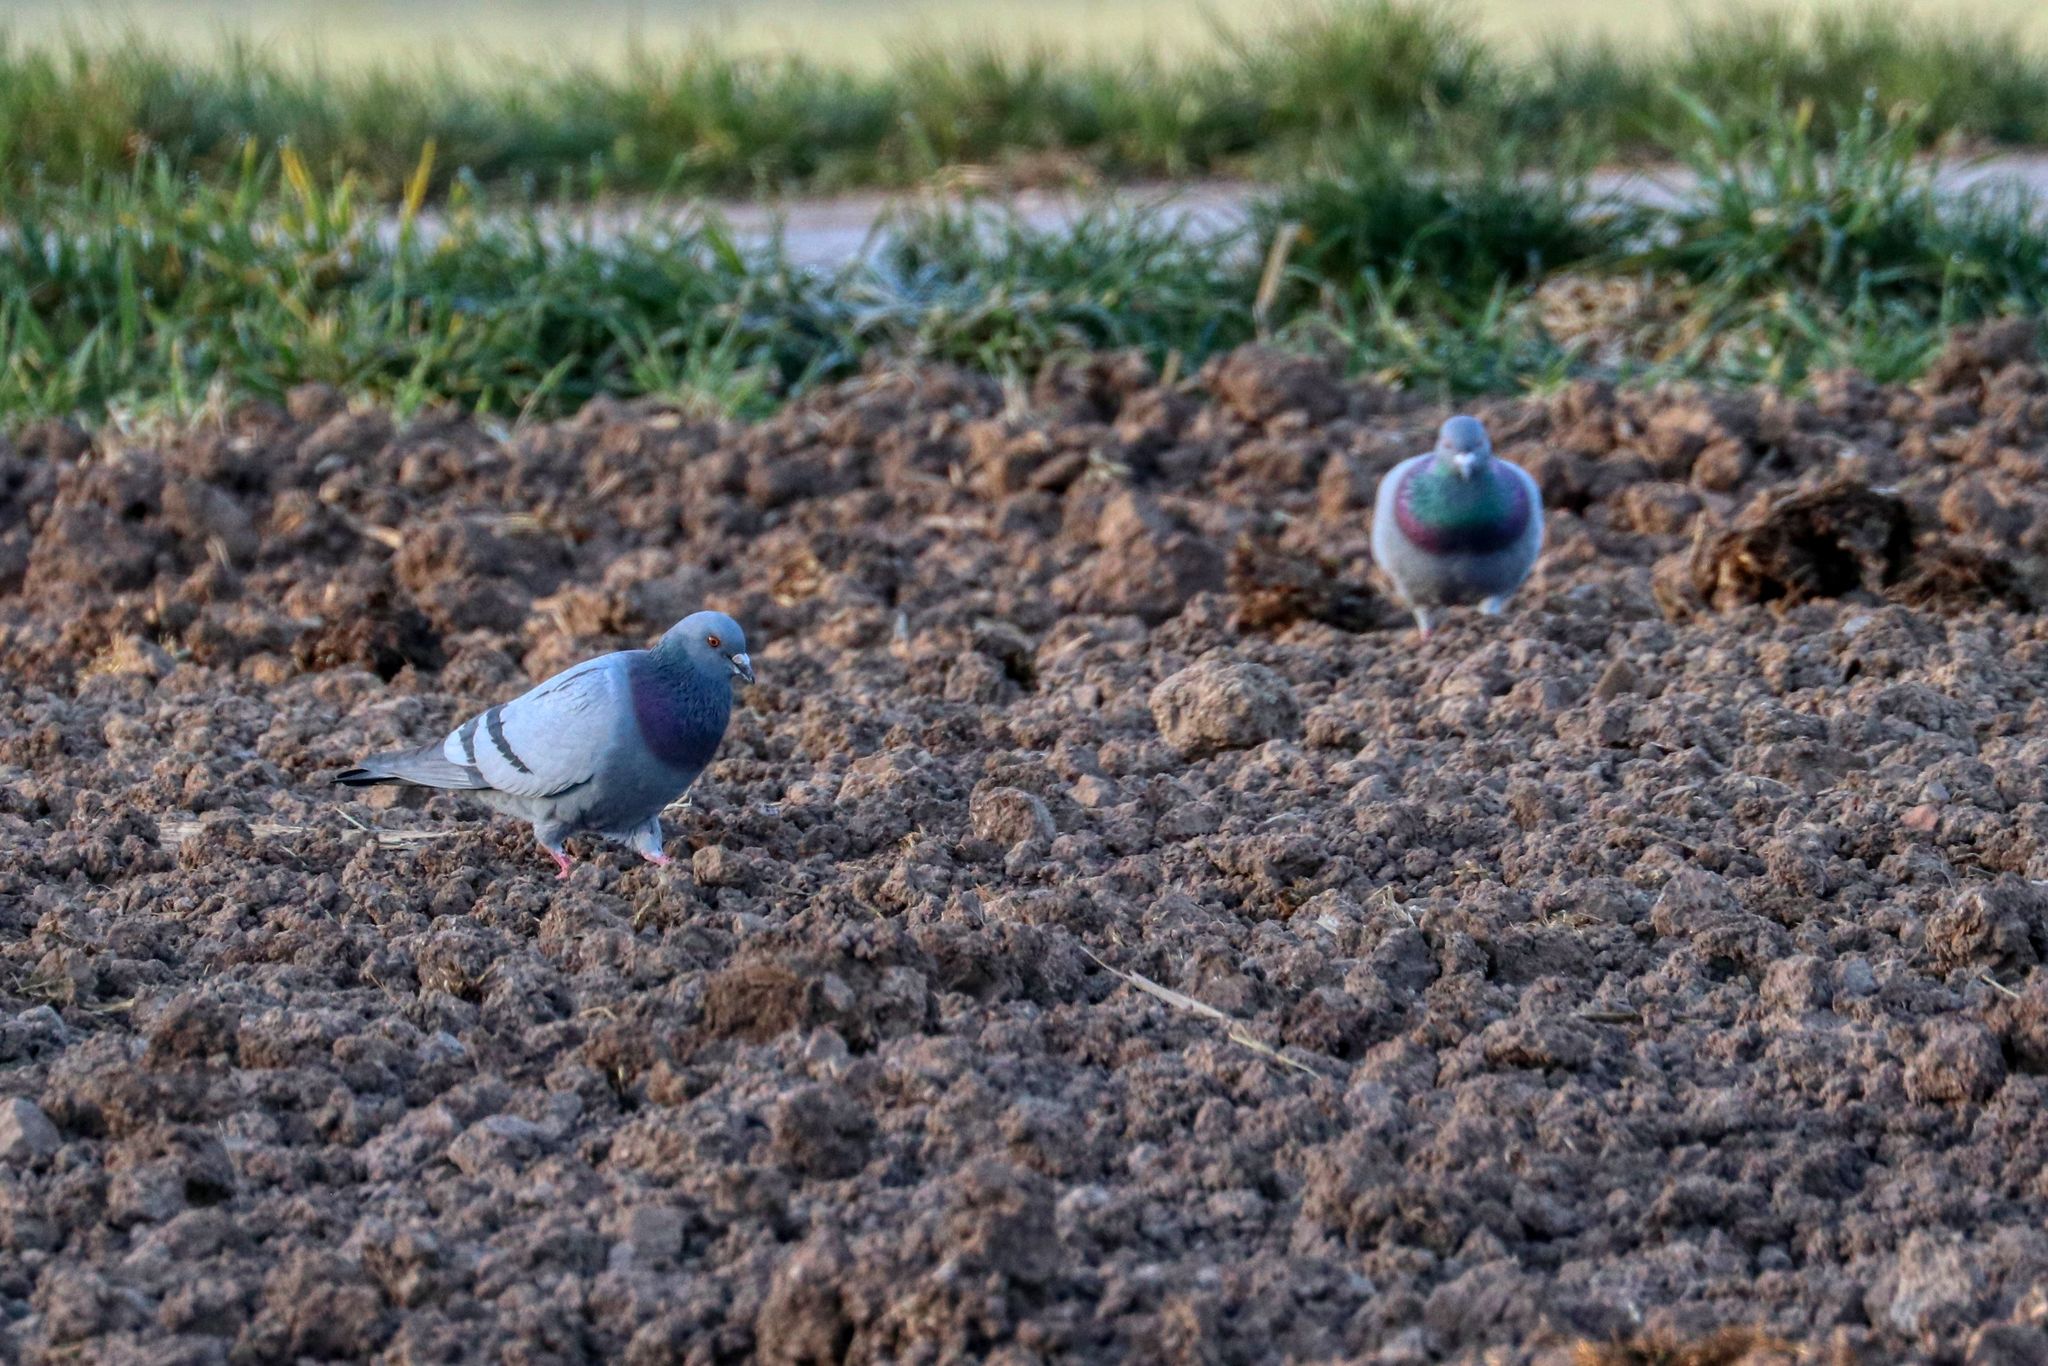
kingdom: Animalia
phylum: Chordata
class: Aves
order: Columbiformes
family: Columbidae
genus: Columba
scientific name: Columba livia
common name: Rock pigeon
